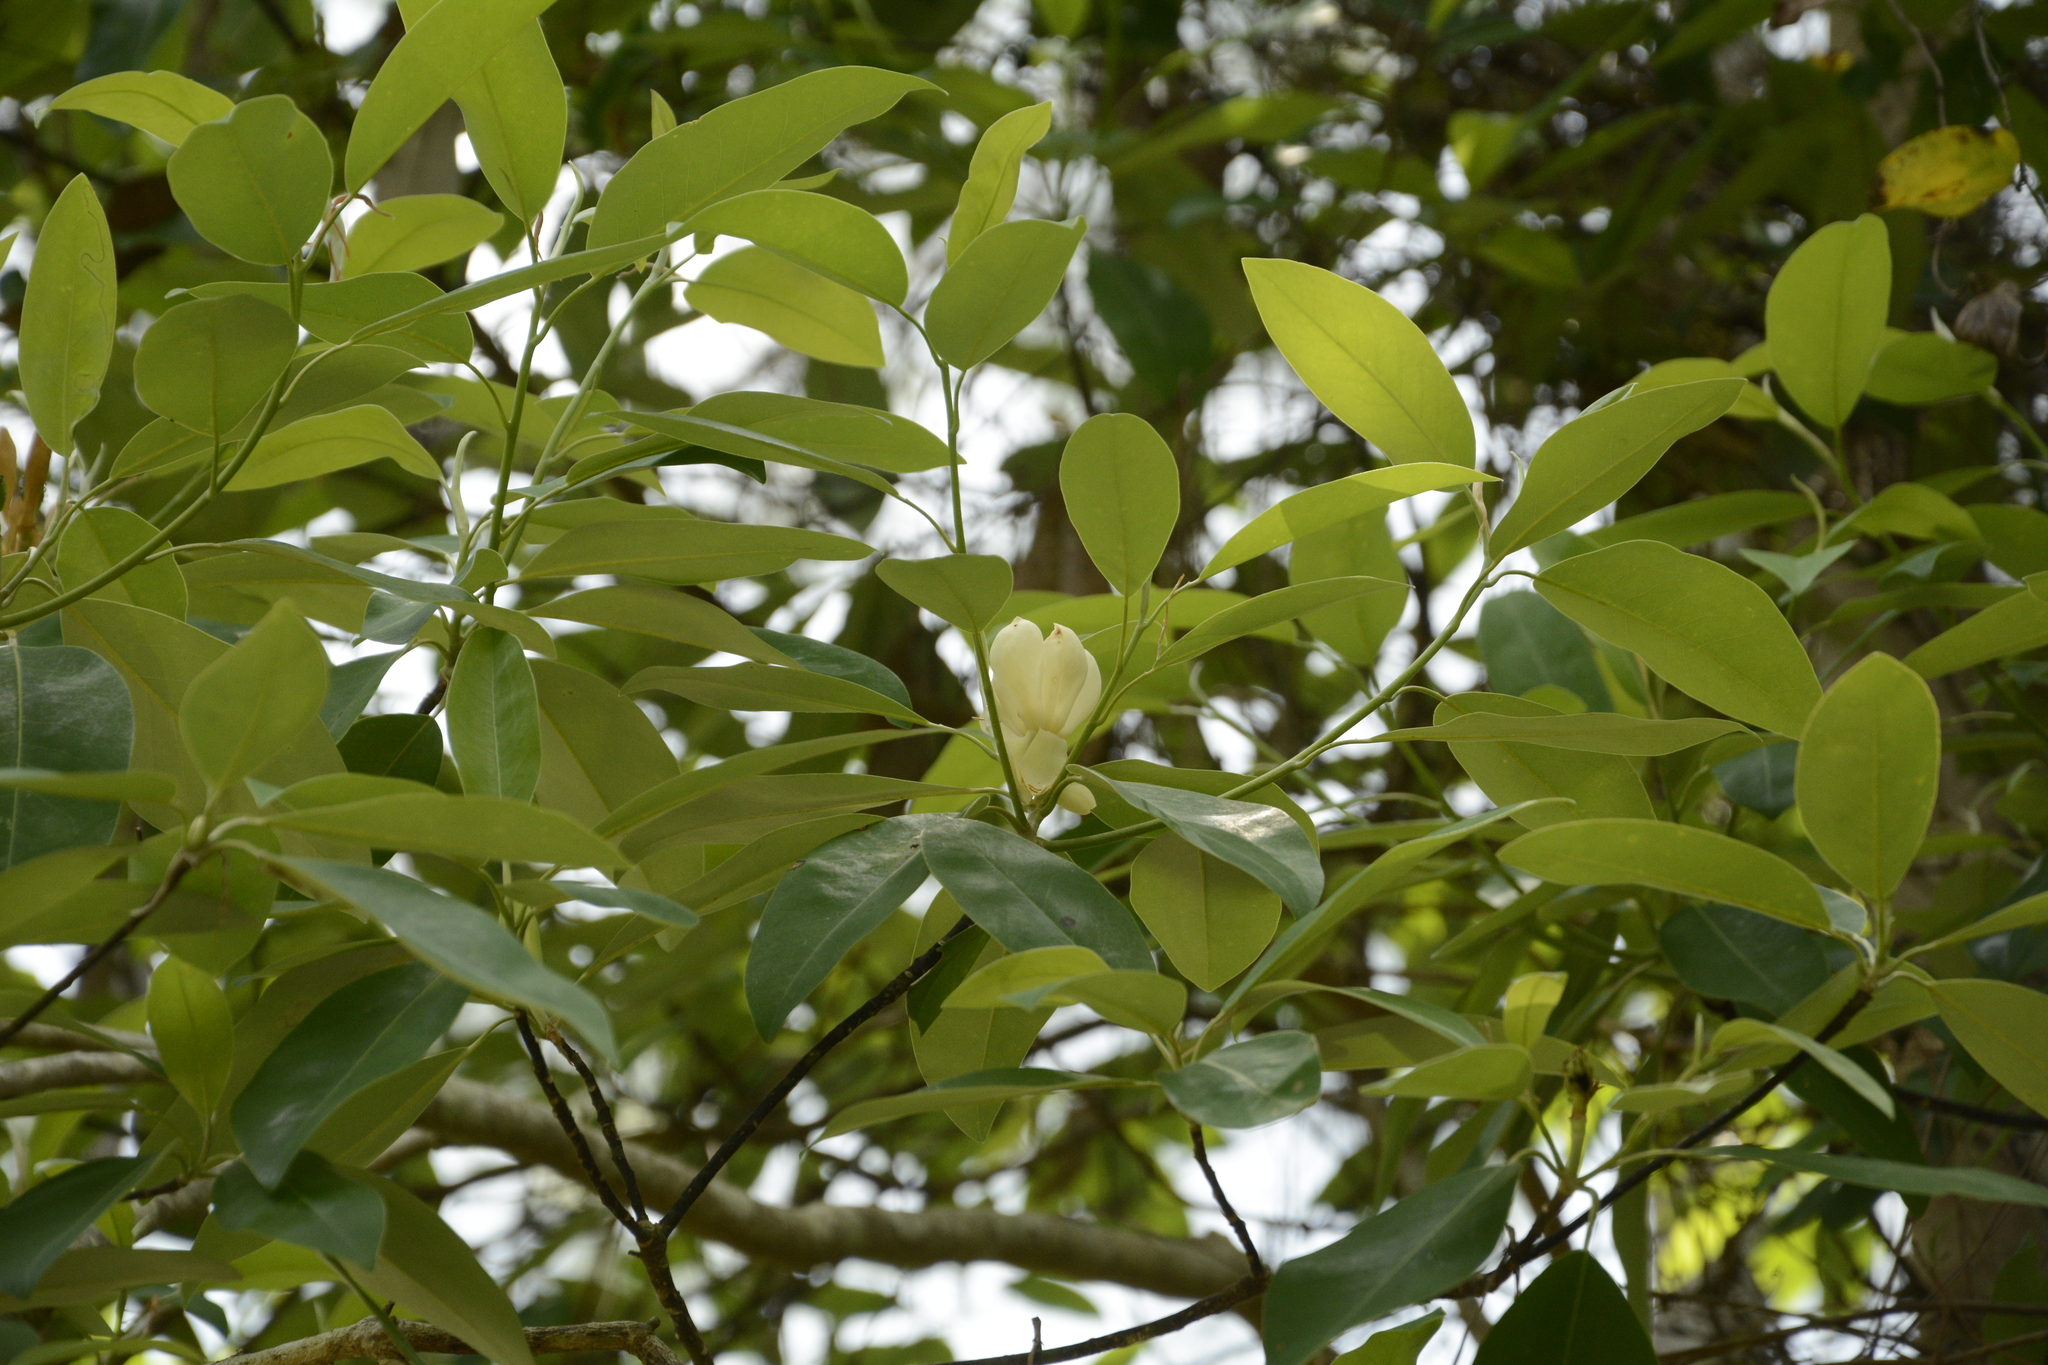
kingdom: Plantae
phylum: Tracheophyta
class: Magnoliopsida
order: Magnoliales
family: Magnoliaceae
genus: Magnolia
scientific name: Magnolia virginiana
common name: Swamp bay
